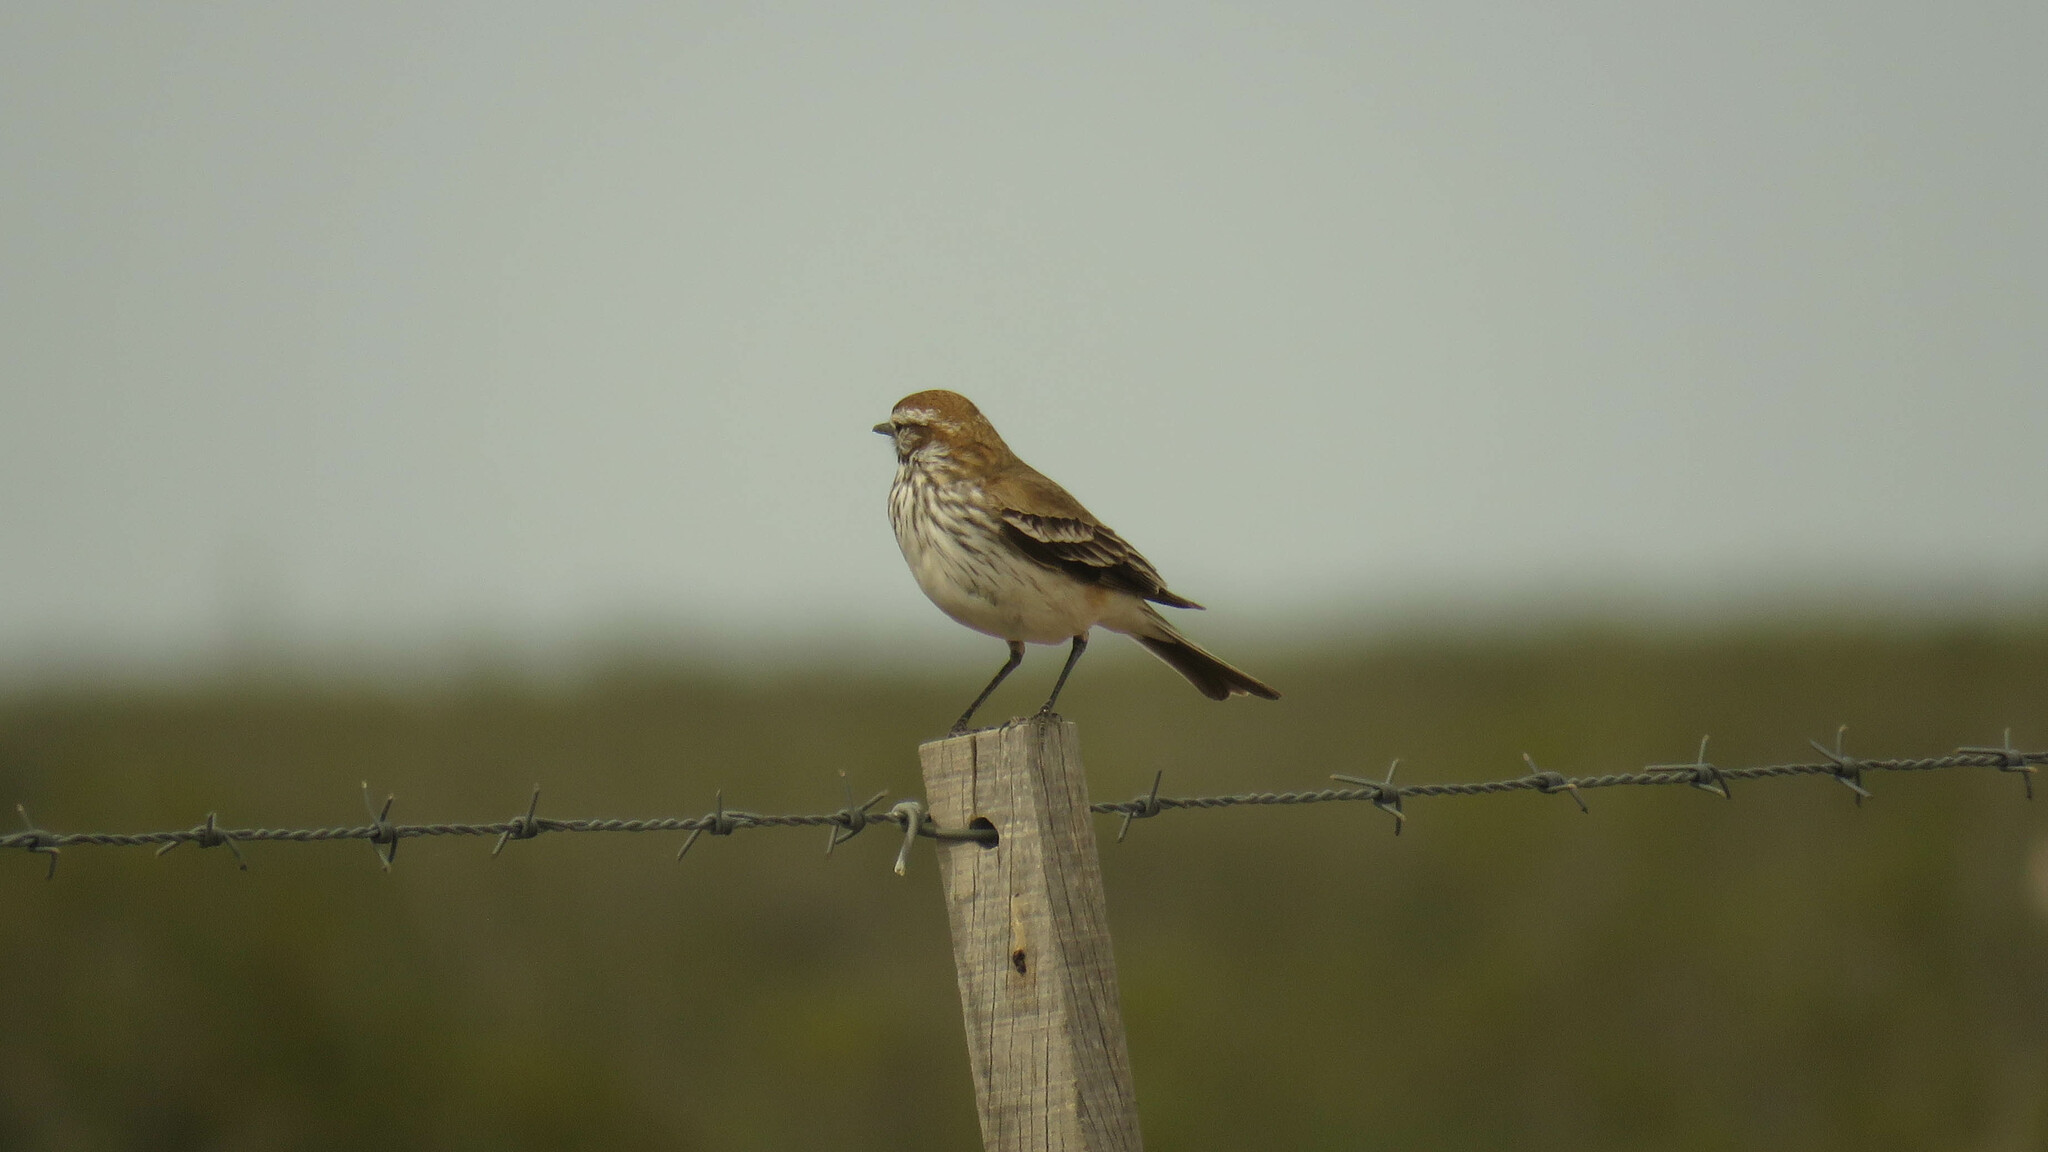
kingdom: Animalia
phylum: Chordata
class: Aves
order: Passeriformes
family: Tyrannidae
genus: Xolmis
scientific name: Xolmis rubetra
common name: Rusty-backed monjita
